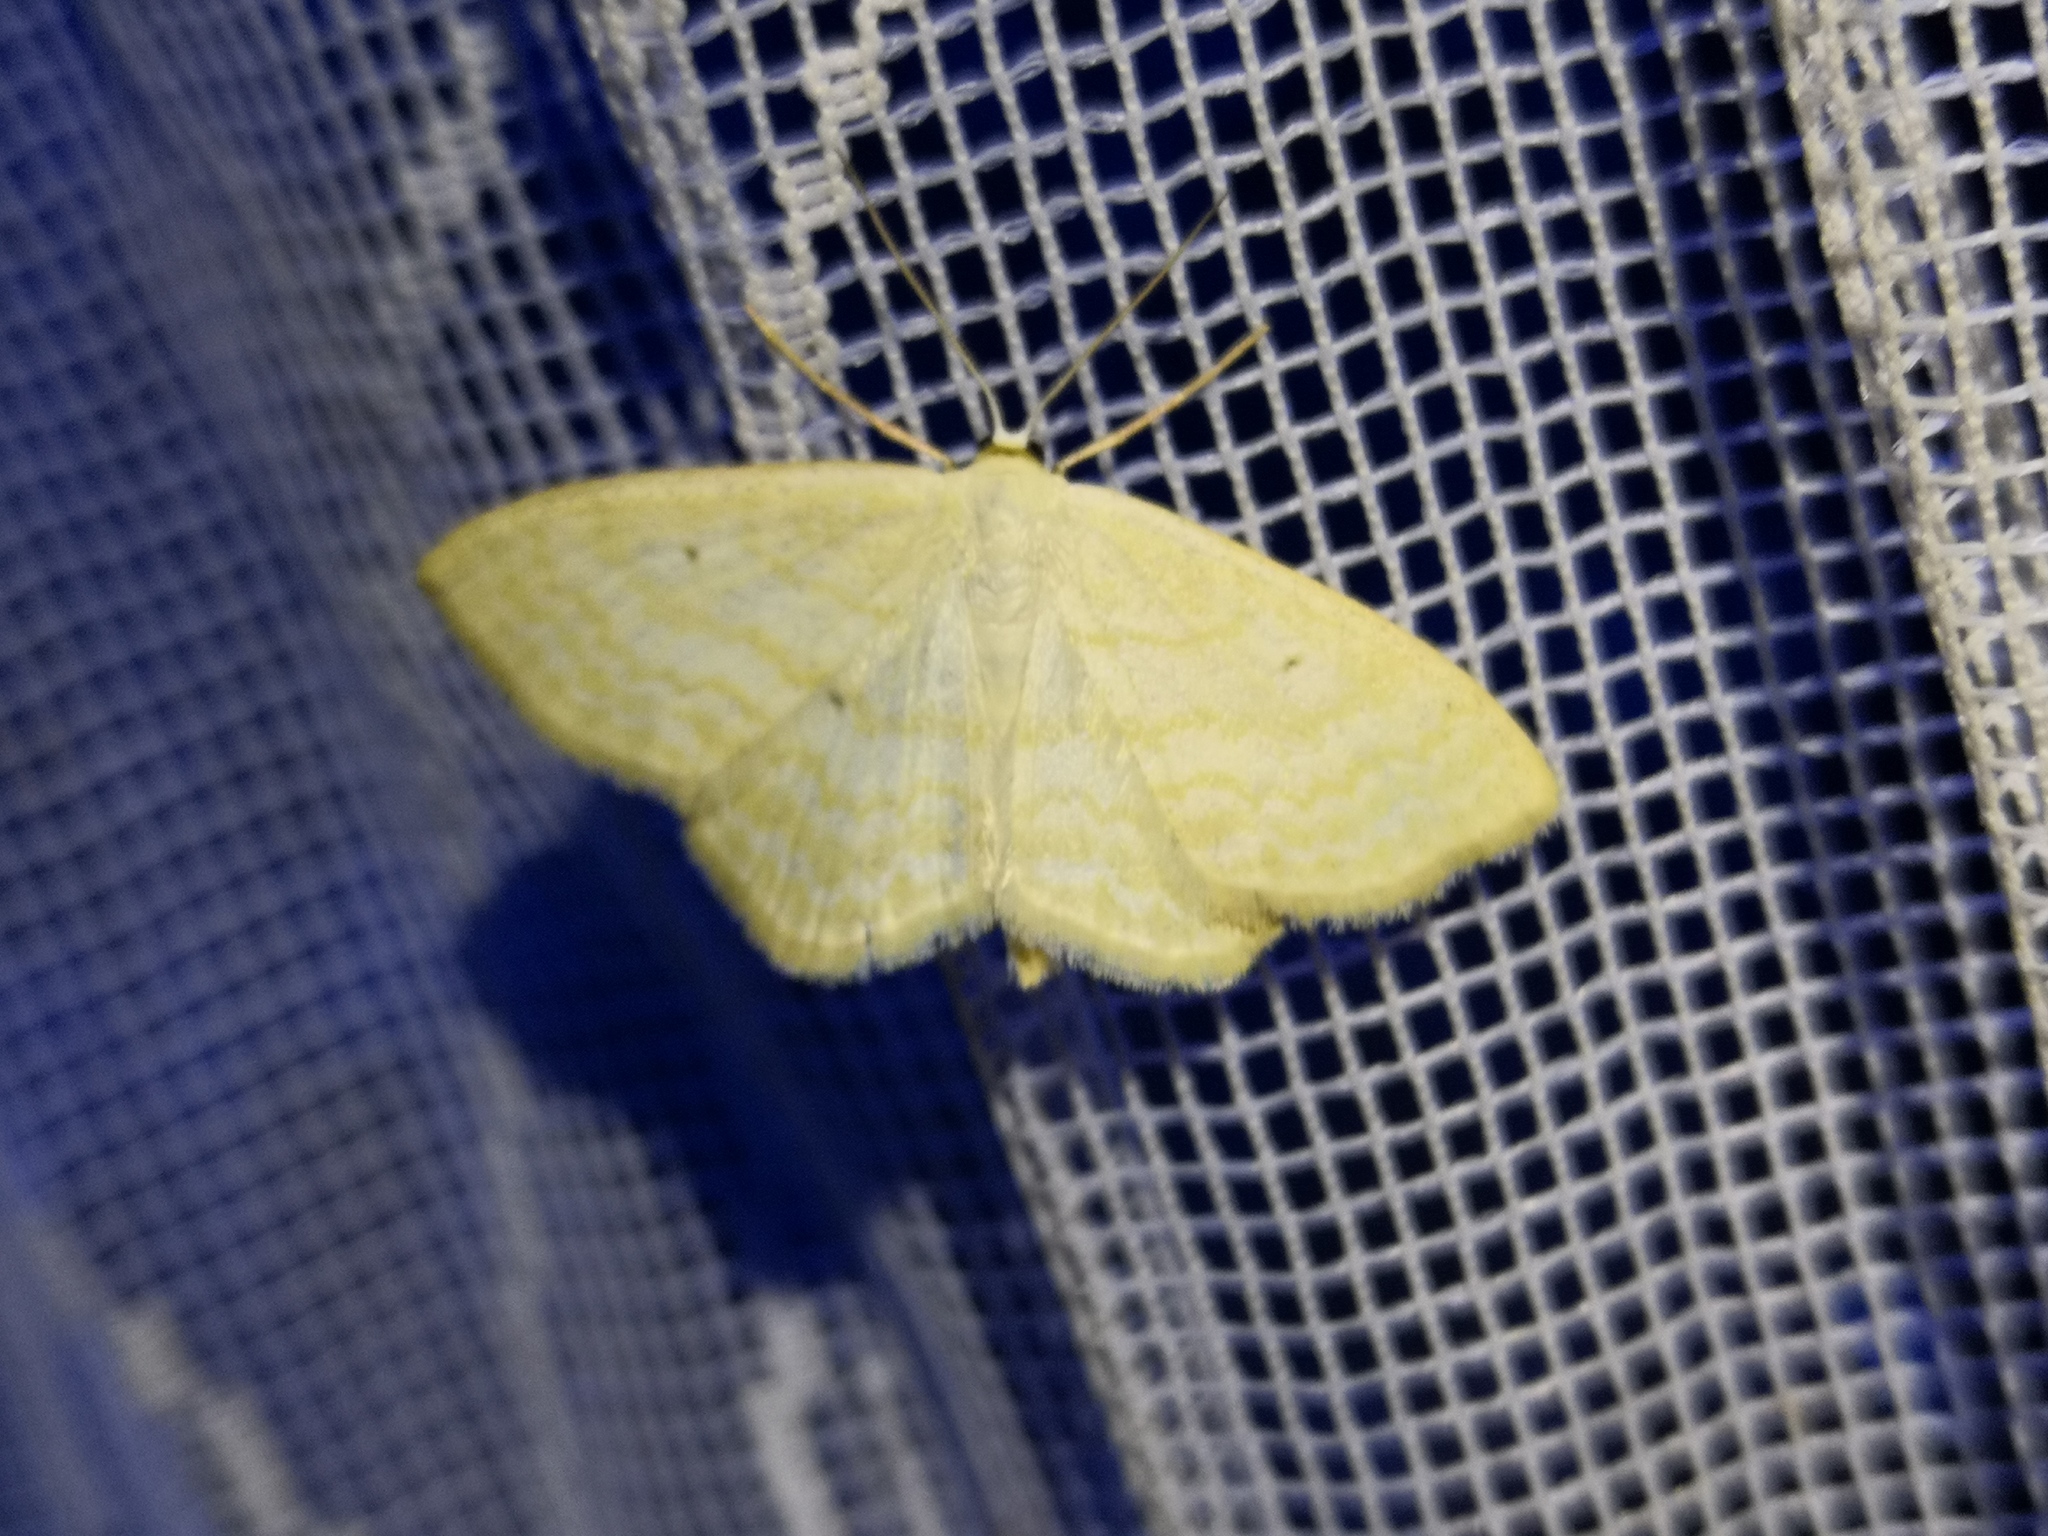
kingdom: Animalia
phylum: Arthropoda
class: Insecta
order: Lepidoptera
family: Geometridae
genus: Scopula
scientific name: Scopula immutata
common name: Lesser cream wave
